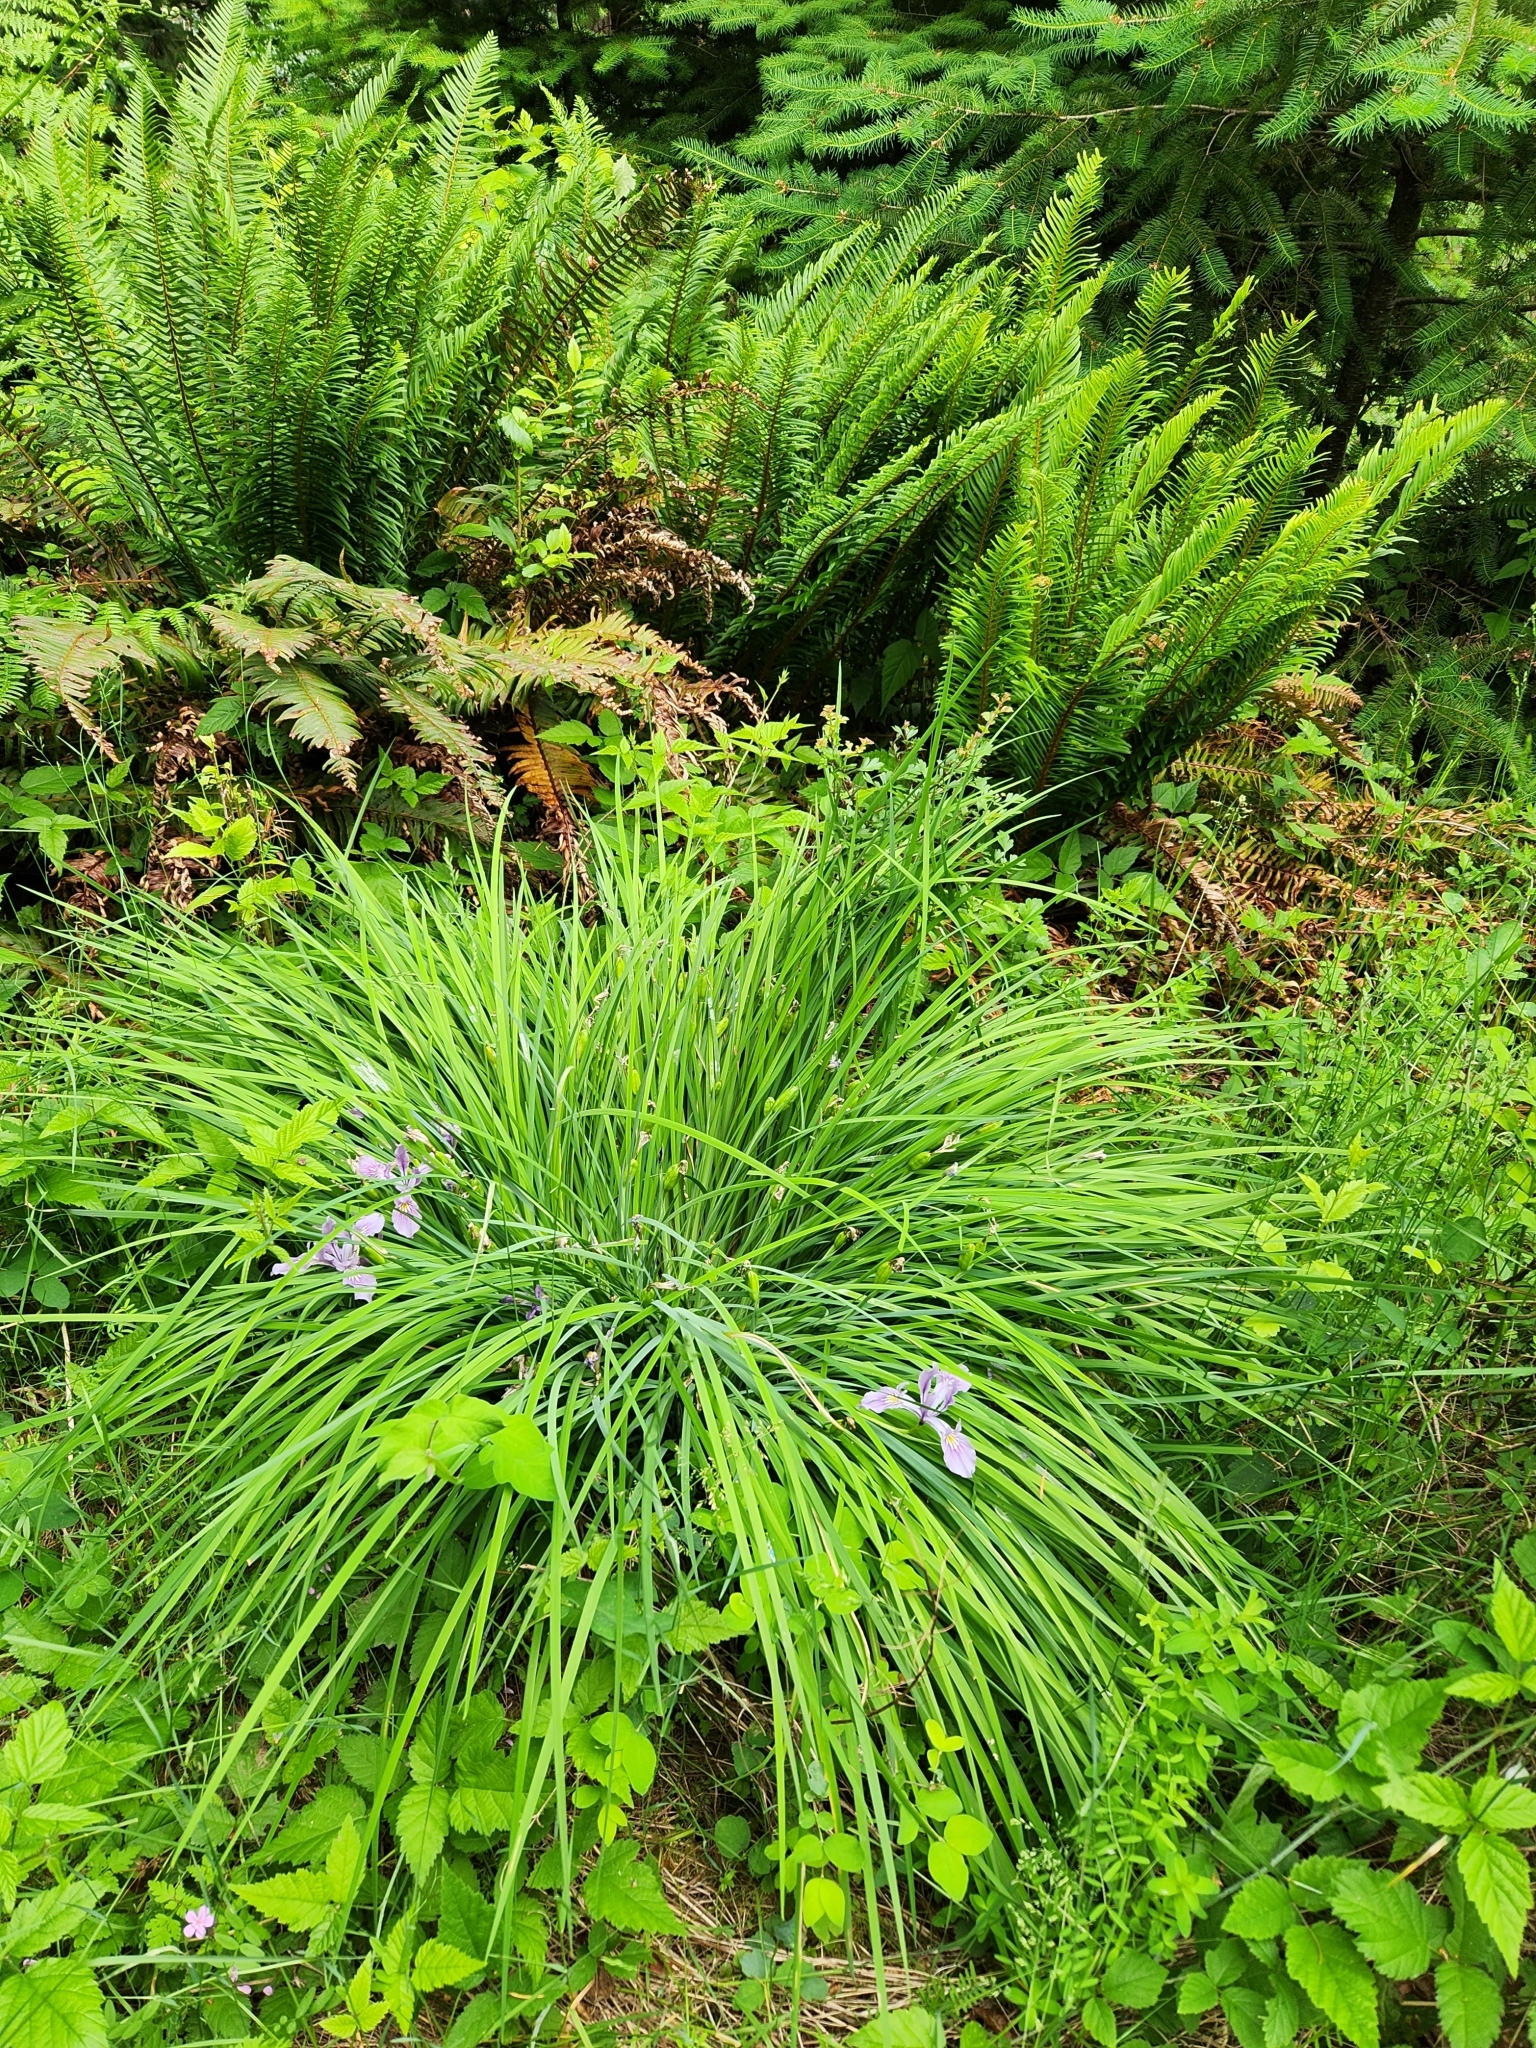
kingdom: Plantae
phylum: Tracheophyta
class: Liliopsida
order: Asparagales
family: Iridaceae
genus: Iris
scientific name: Iris tenax
